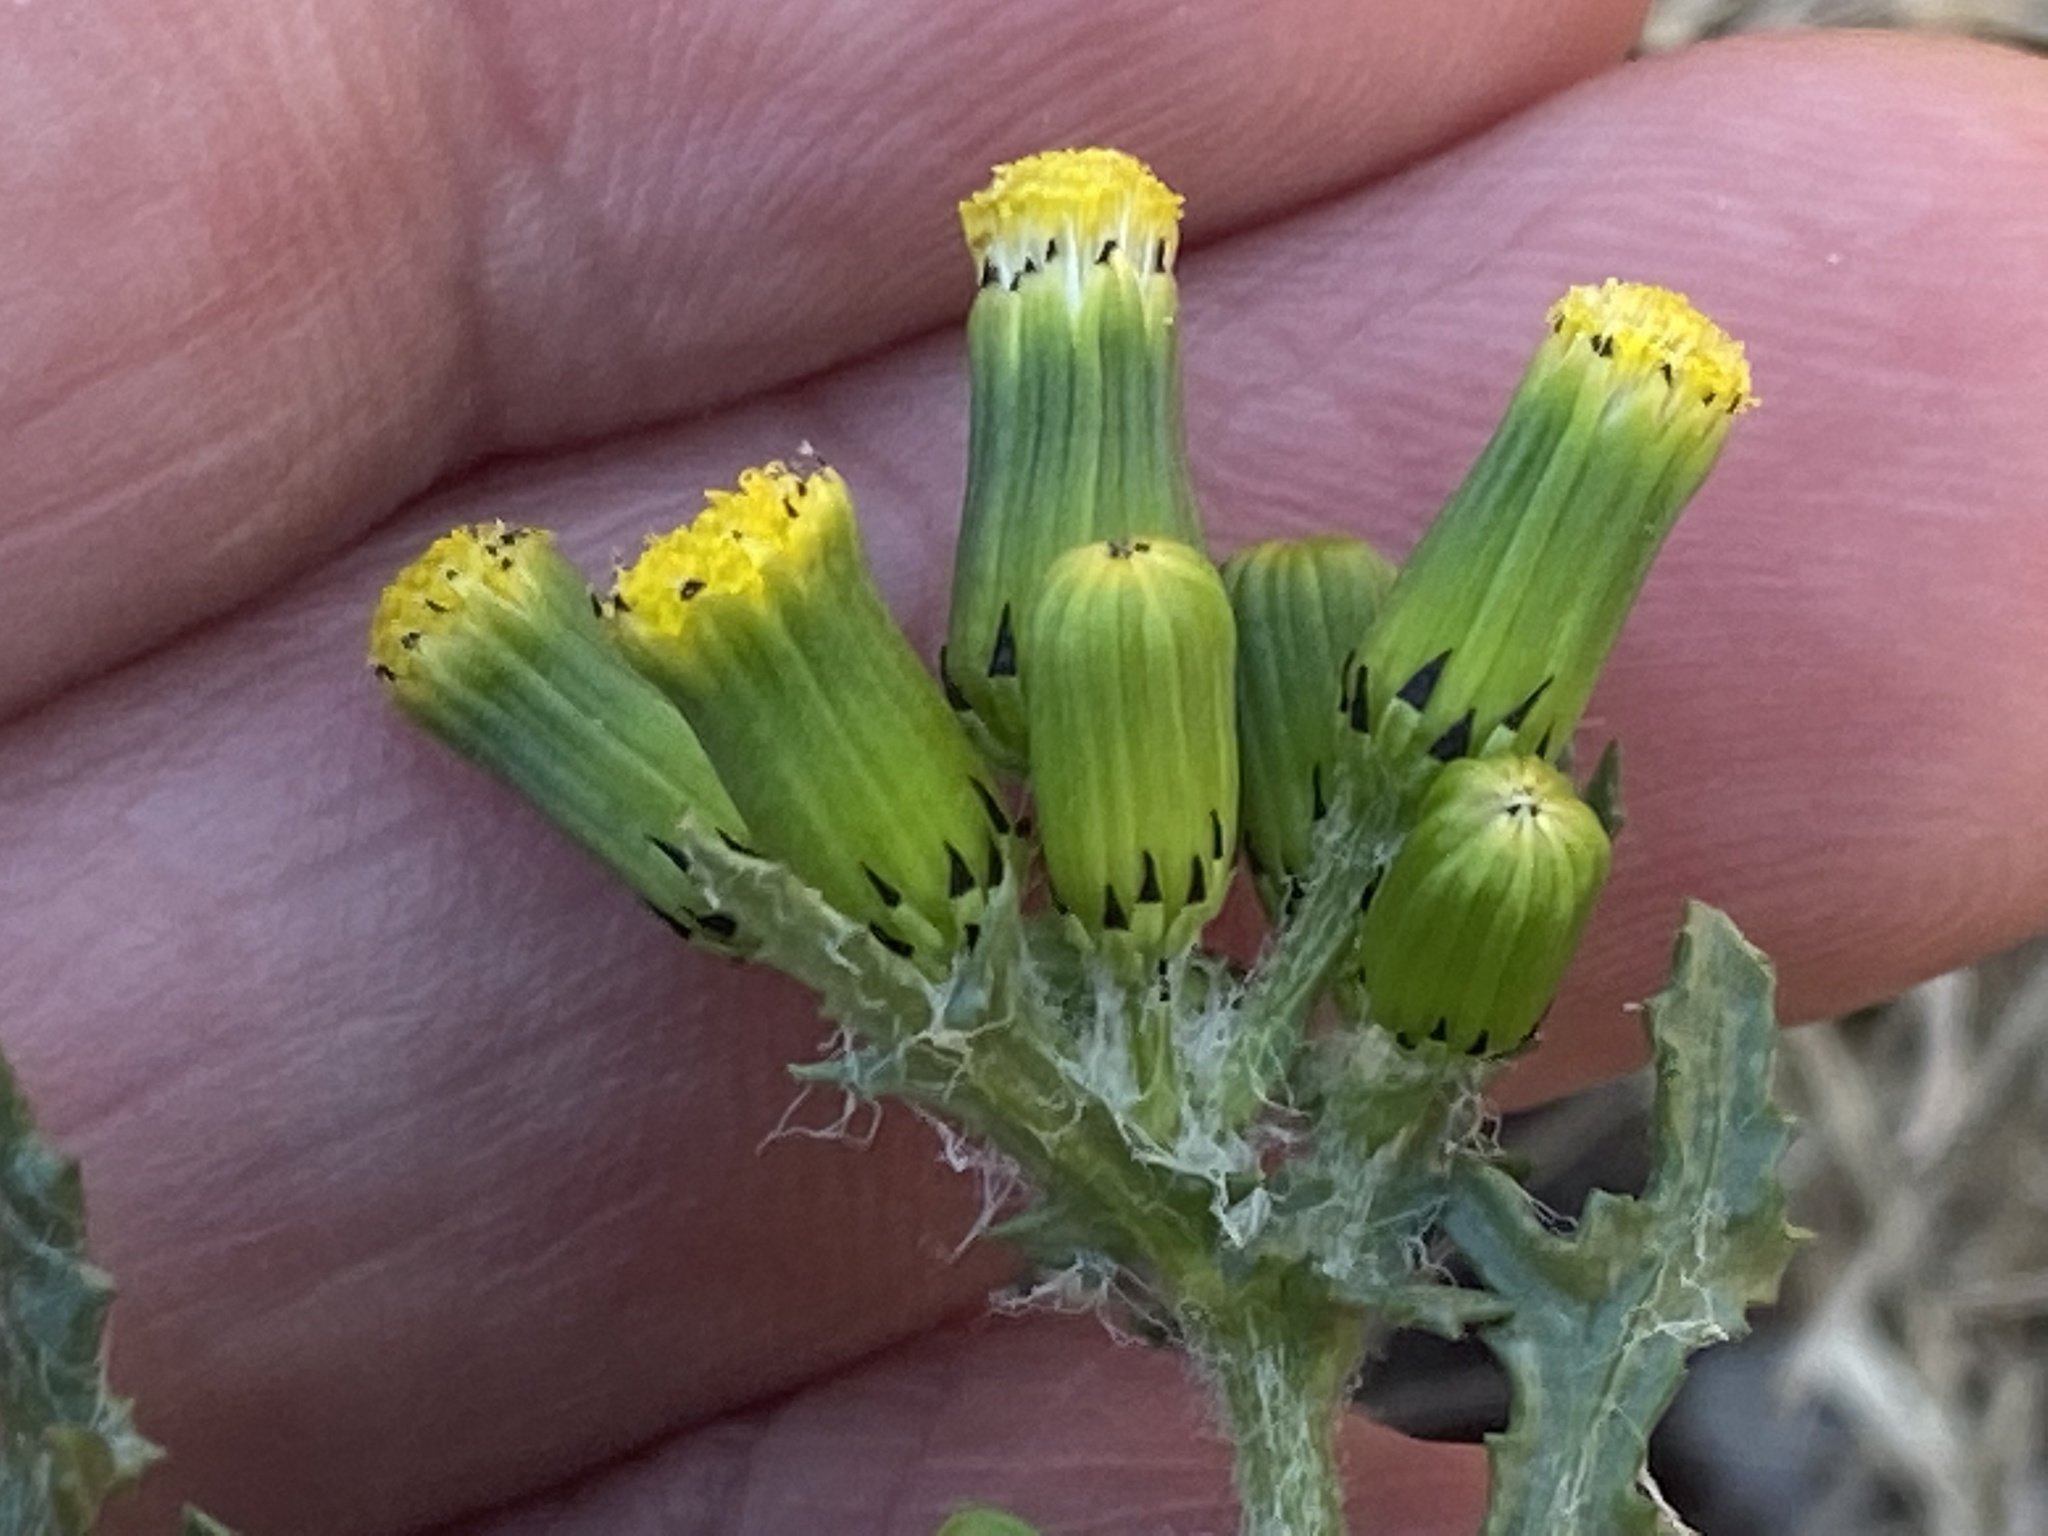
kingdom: Plantae
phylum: Tracheophyta
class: Magnoliopsida
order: Asterales
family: Asteraceae
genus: Senecio
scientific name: Senecio vulgaris
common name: Old-man-in-the-spring
